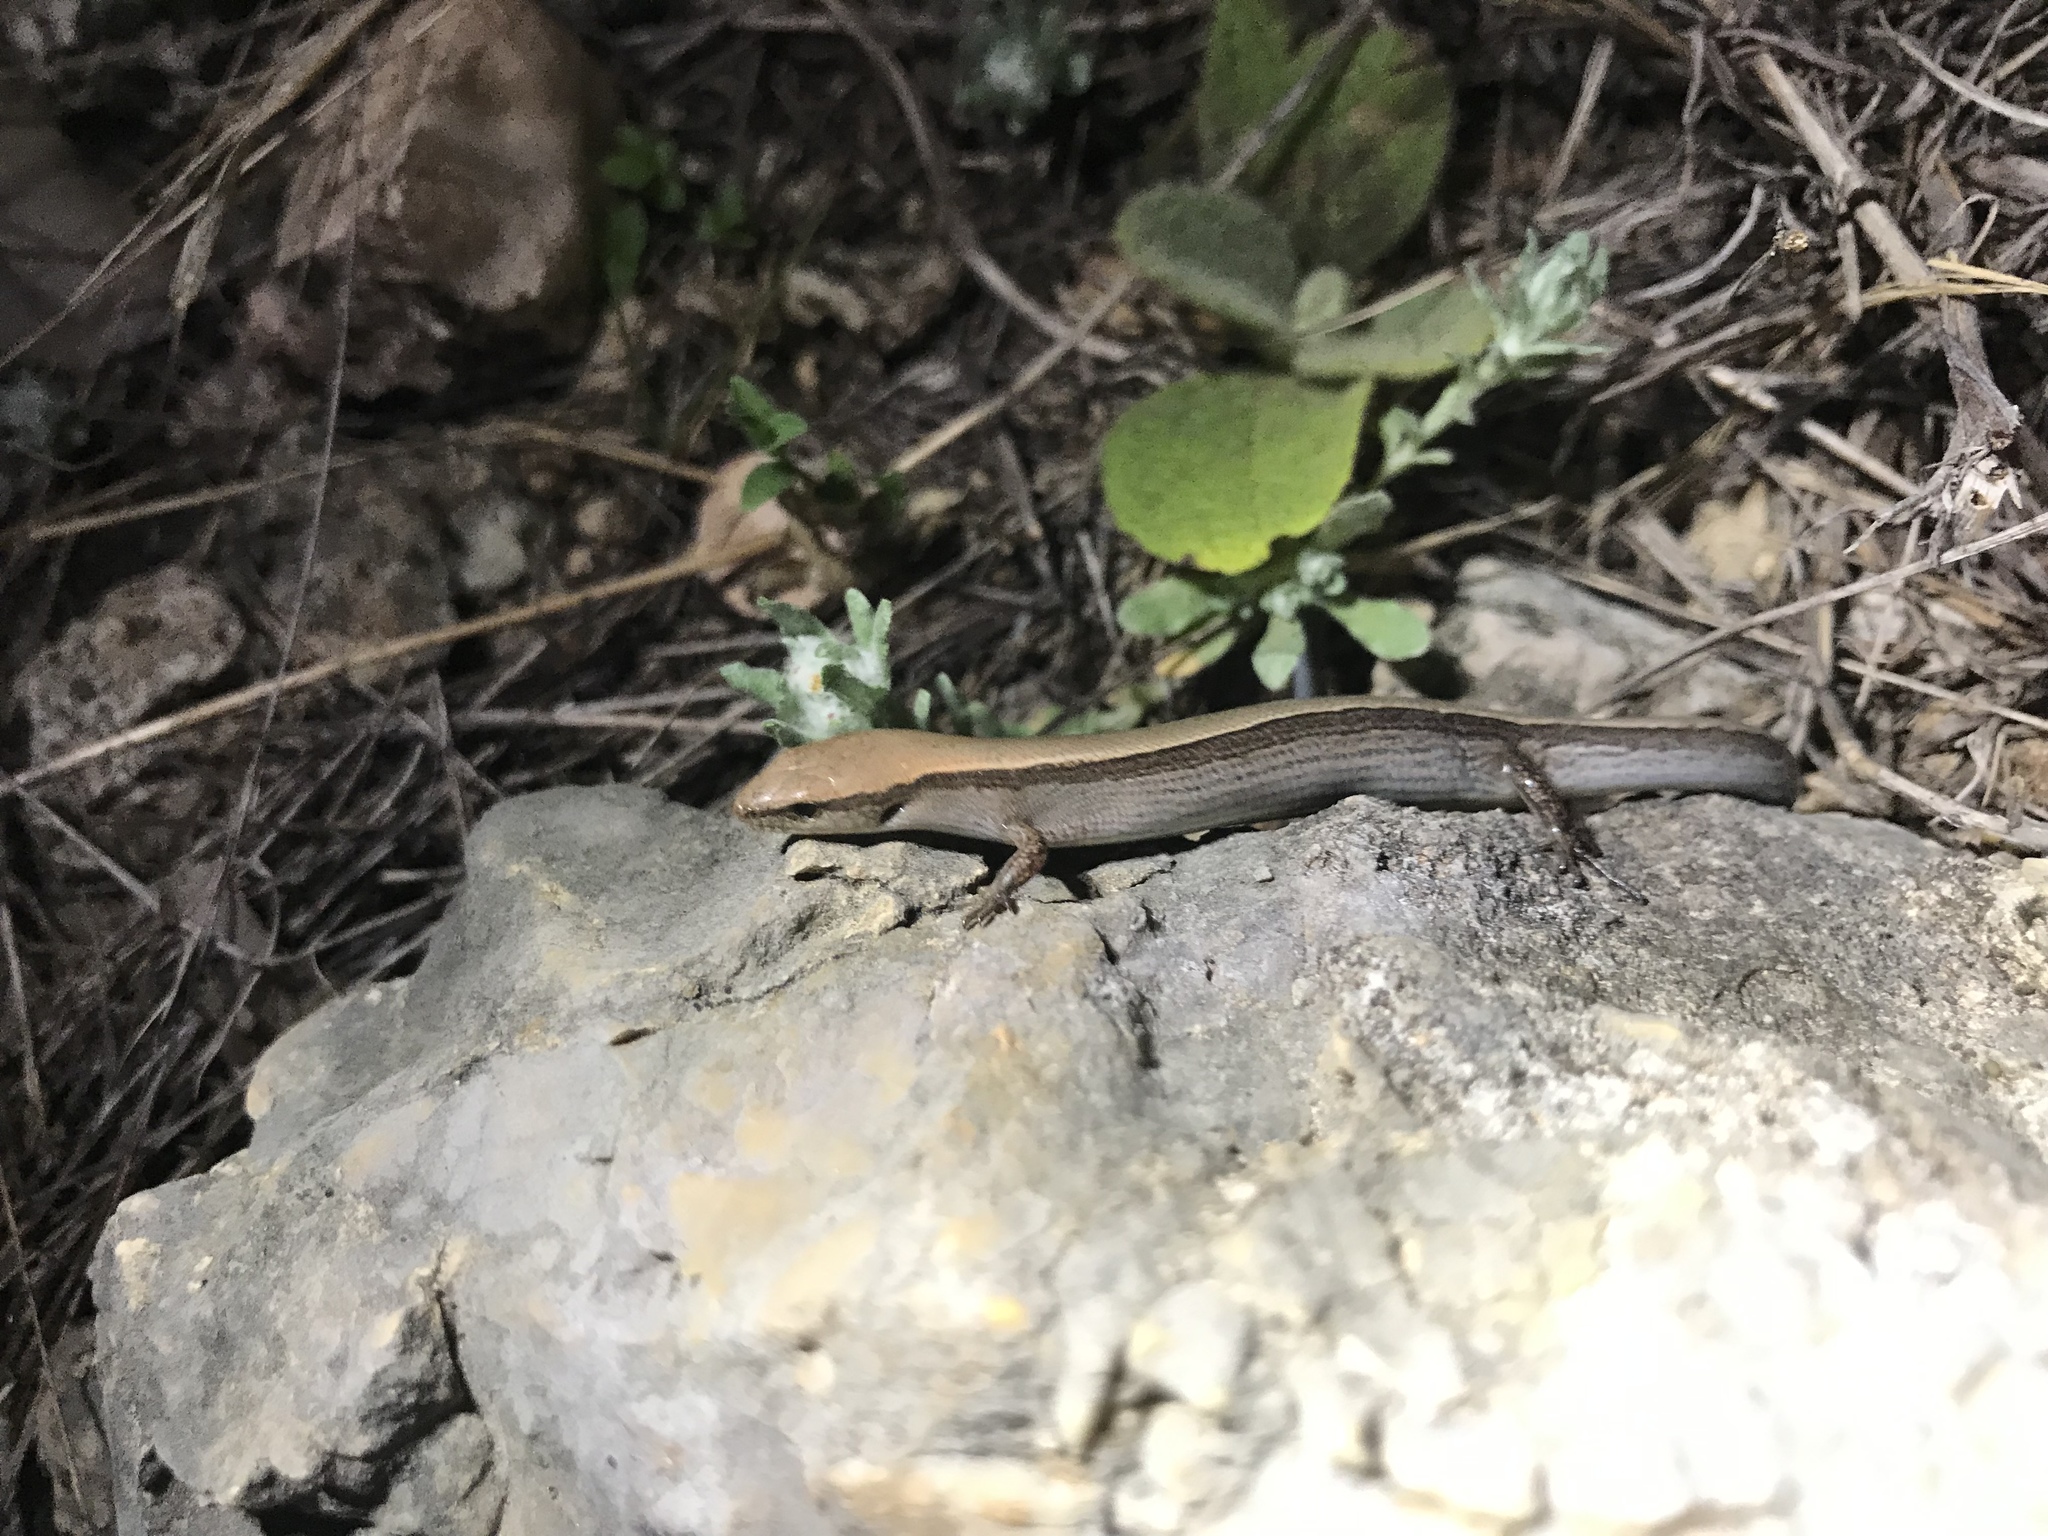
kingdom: Animalia
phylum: Chordata
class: Squamata
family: Scincidae
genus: Scincella
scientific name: Scincella lateralis
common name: Ground skink
